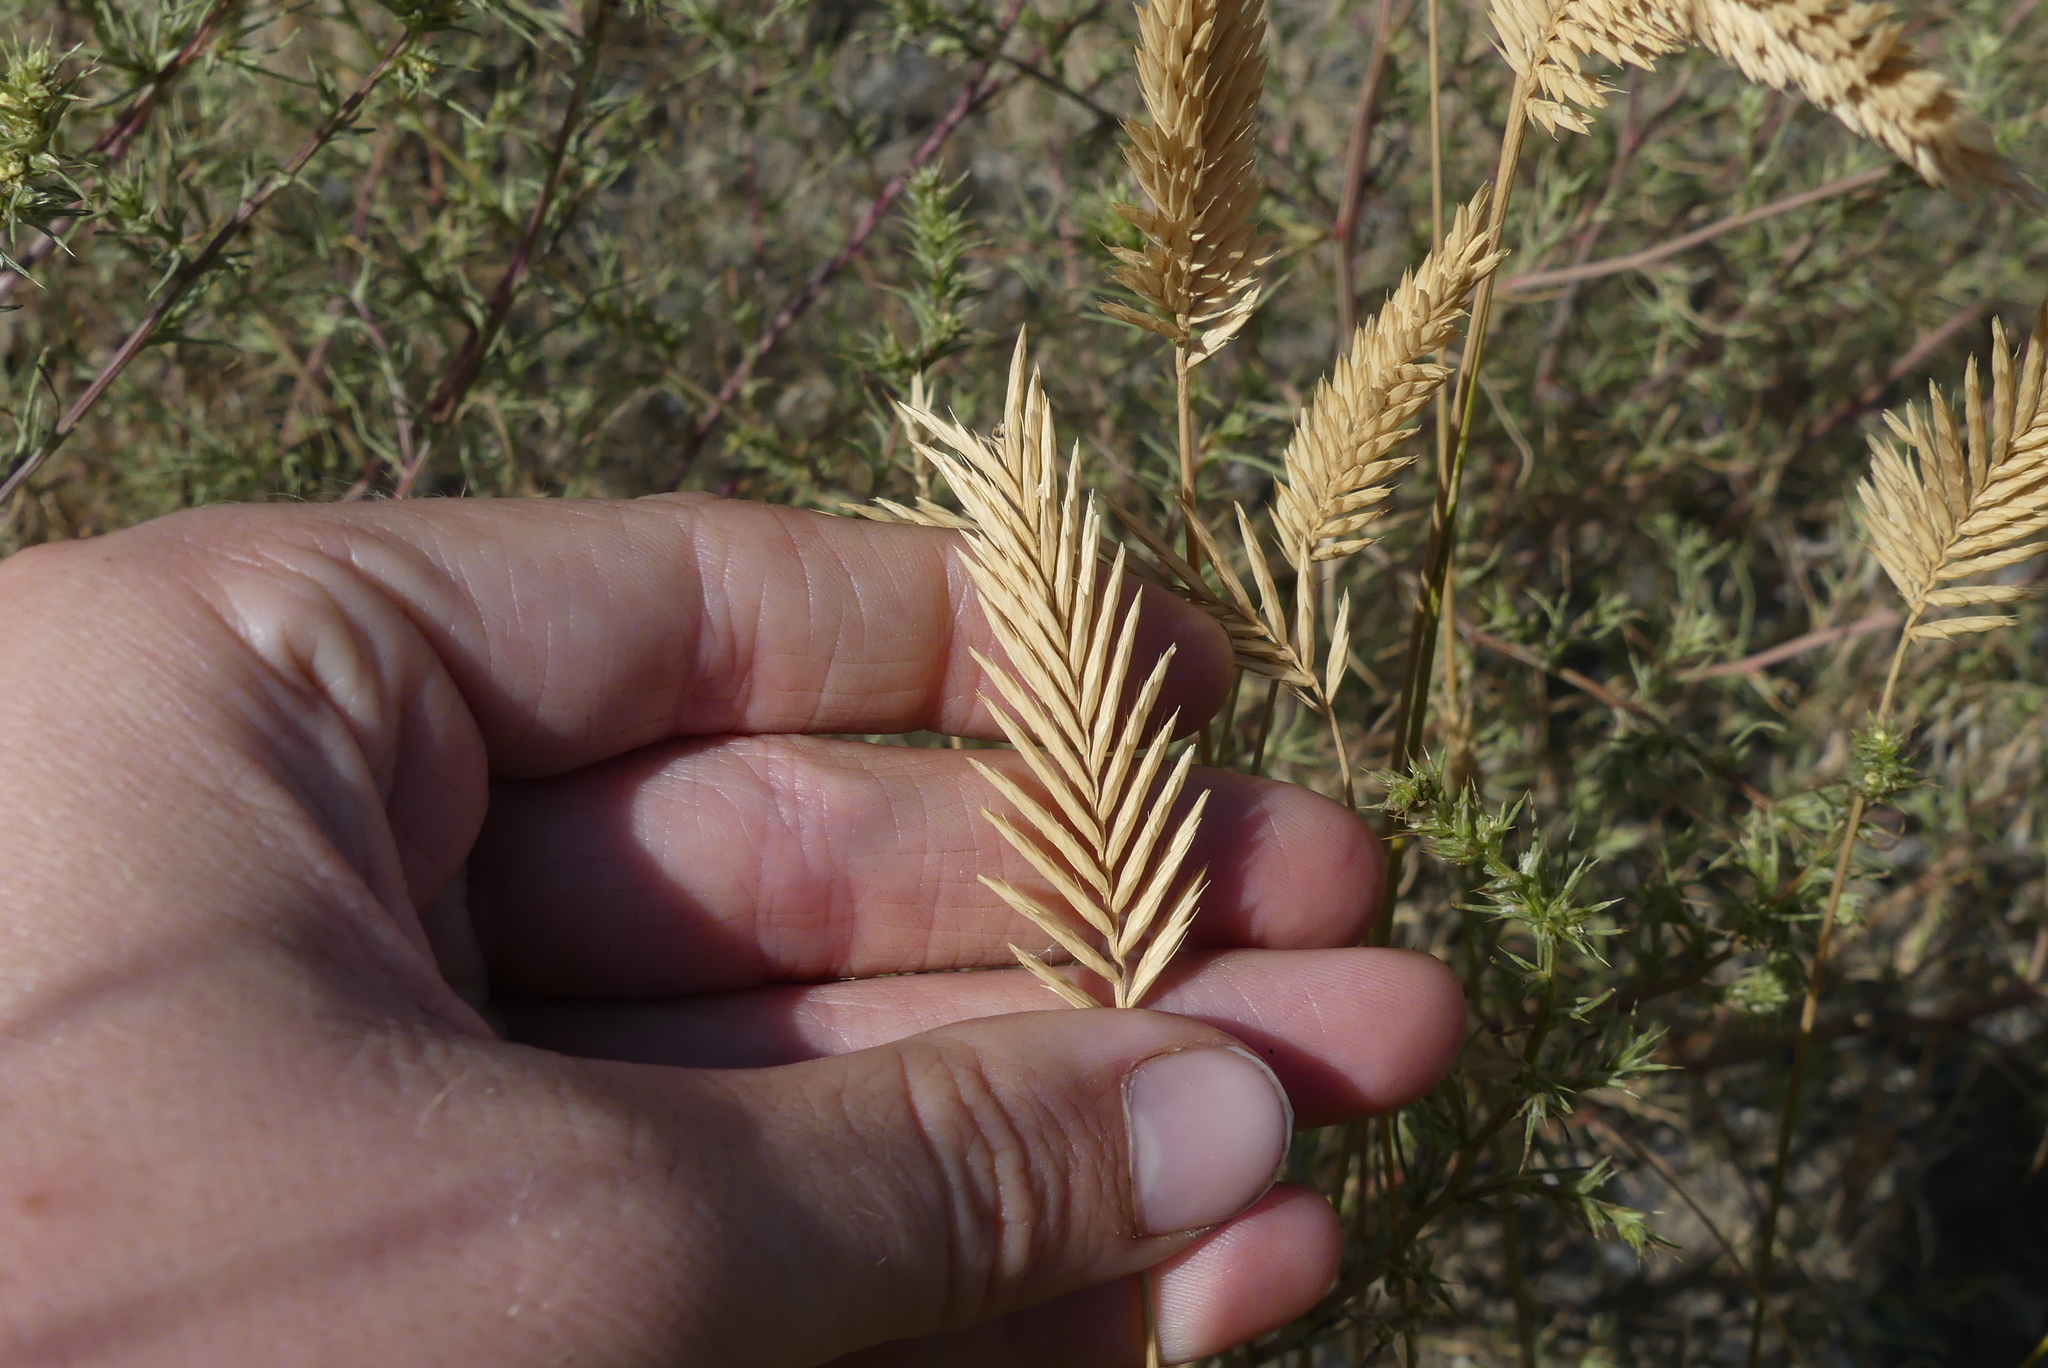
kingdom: Plantae
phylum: Tracheophyta
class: Liliopsida
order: Poales
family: Poaceae
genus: Agropyron
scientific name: Agropyron cristatum
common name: Crested wheatgrass
